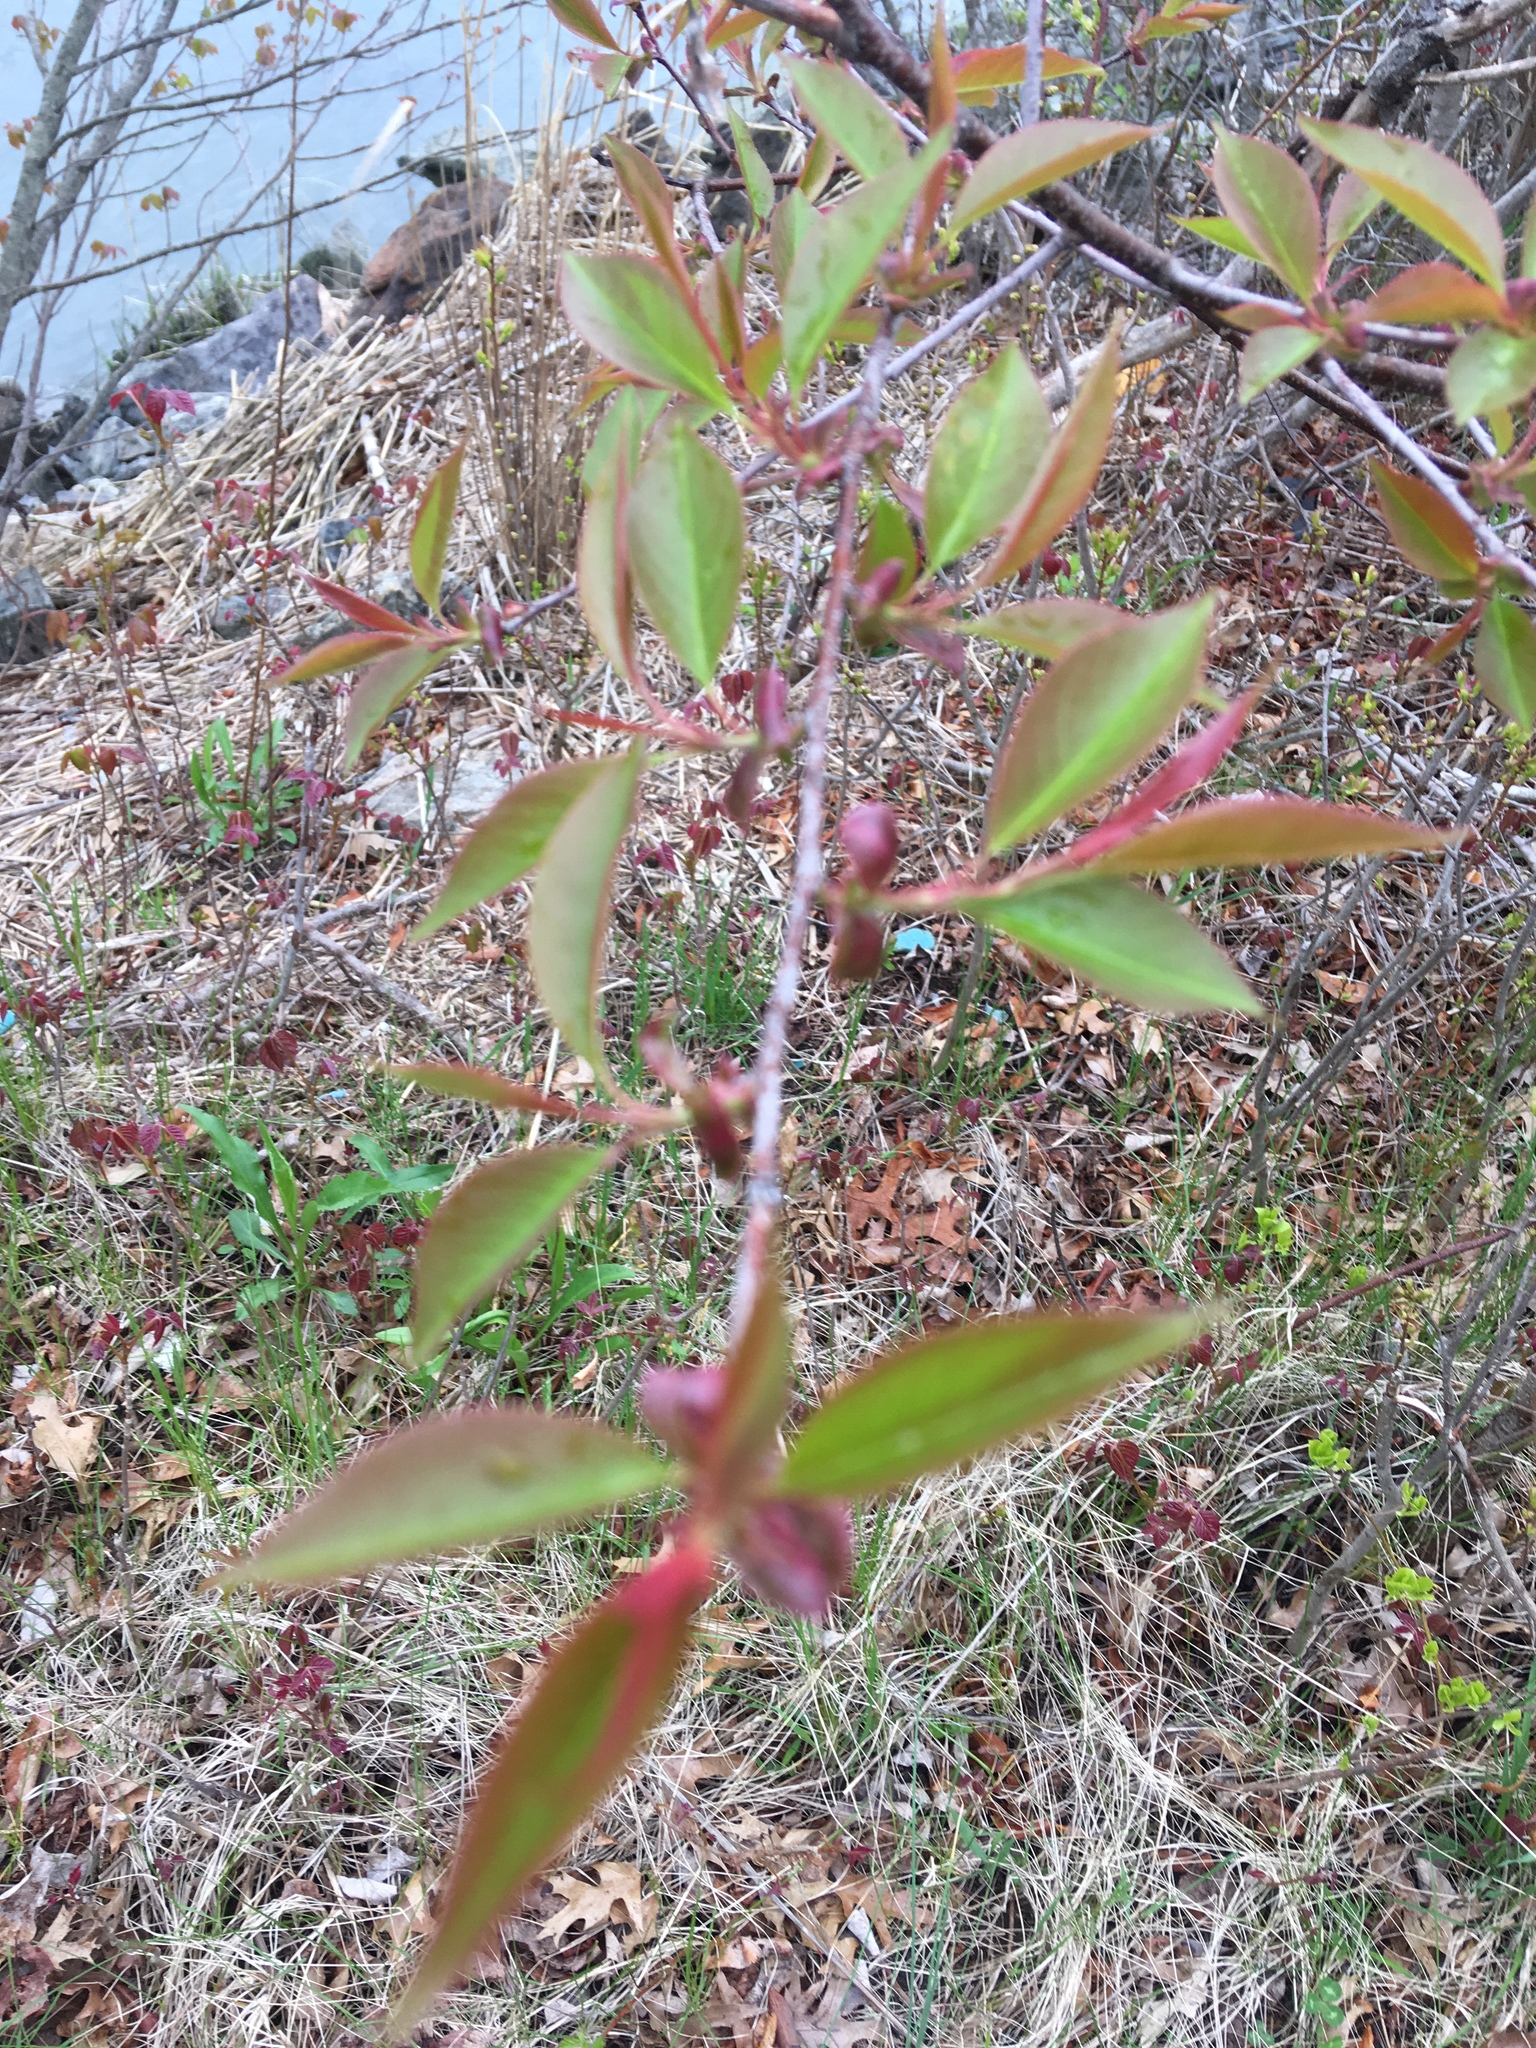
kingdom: Plantae
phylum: Tracheophyta
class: Magnoliopsida
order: Rosales
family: Rosaceae
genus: Prunus
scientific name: Prunus serotina
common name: Black cherry
